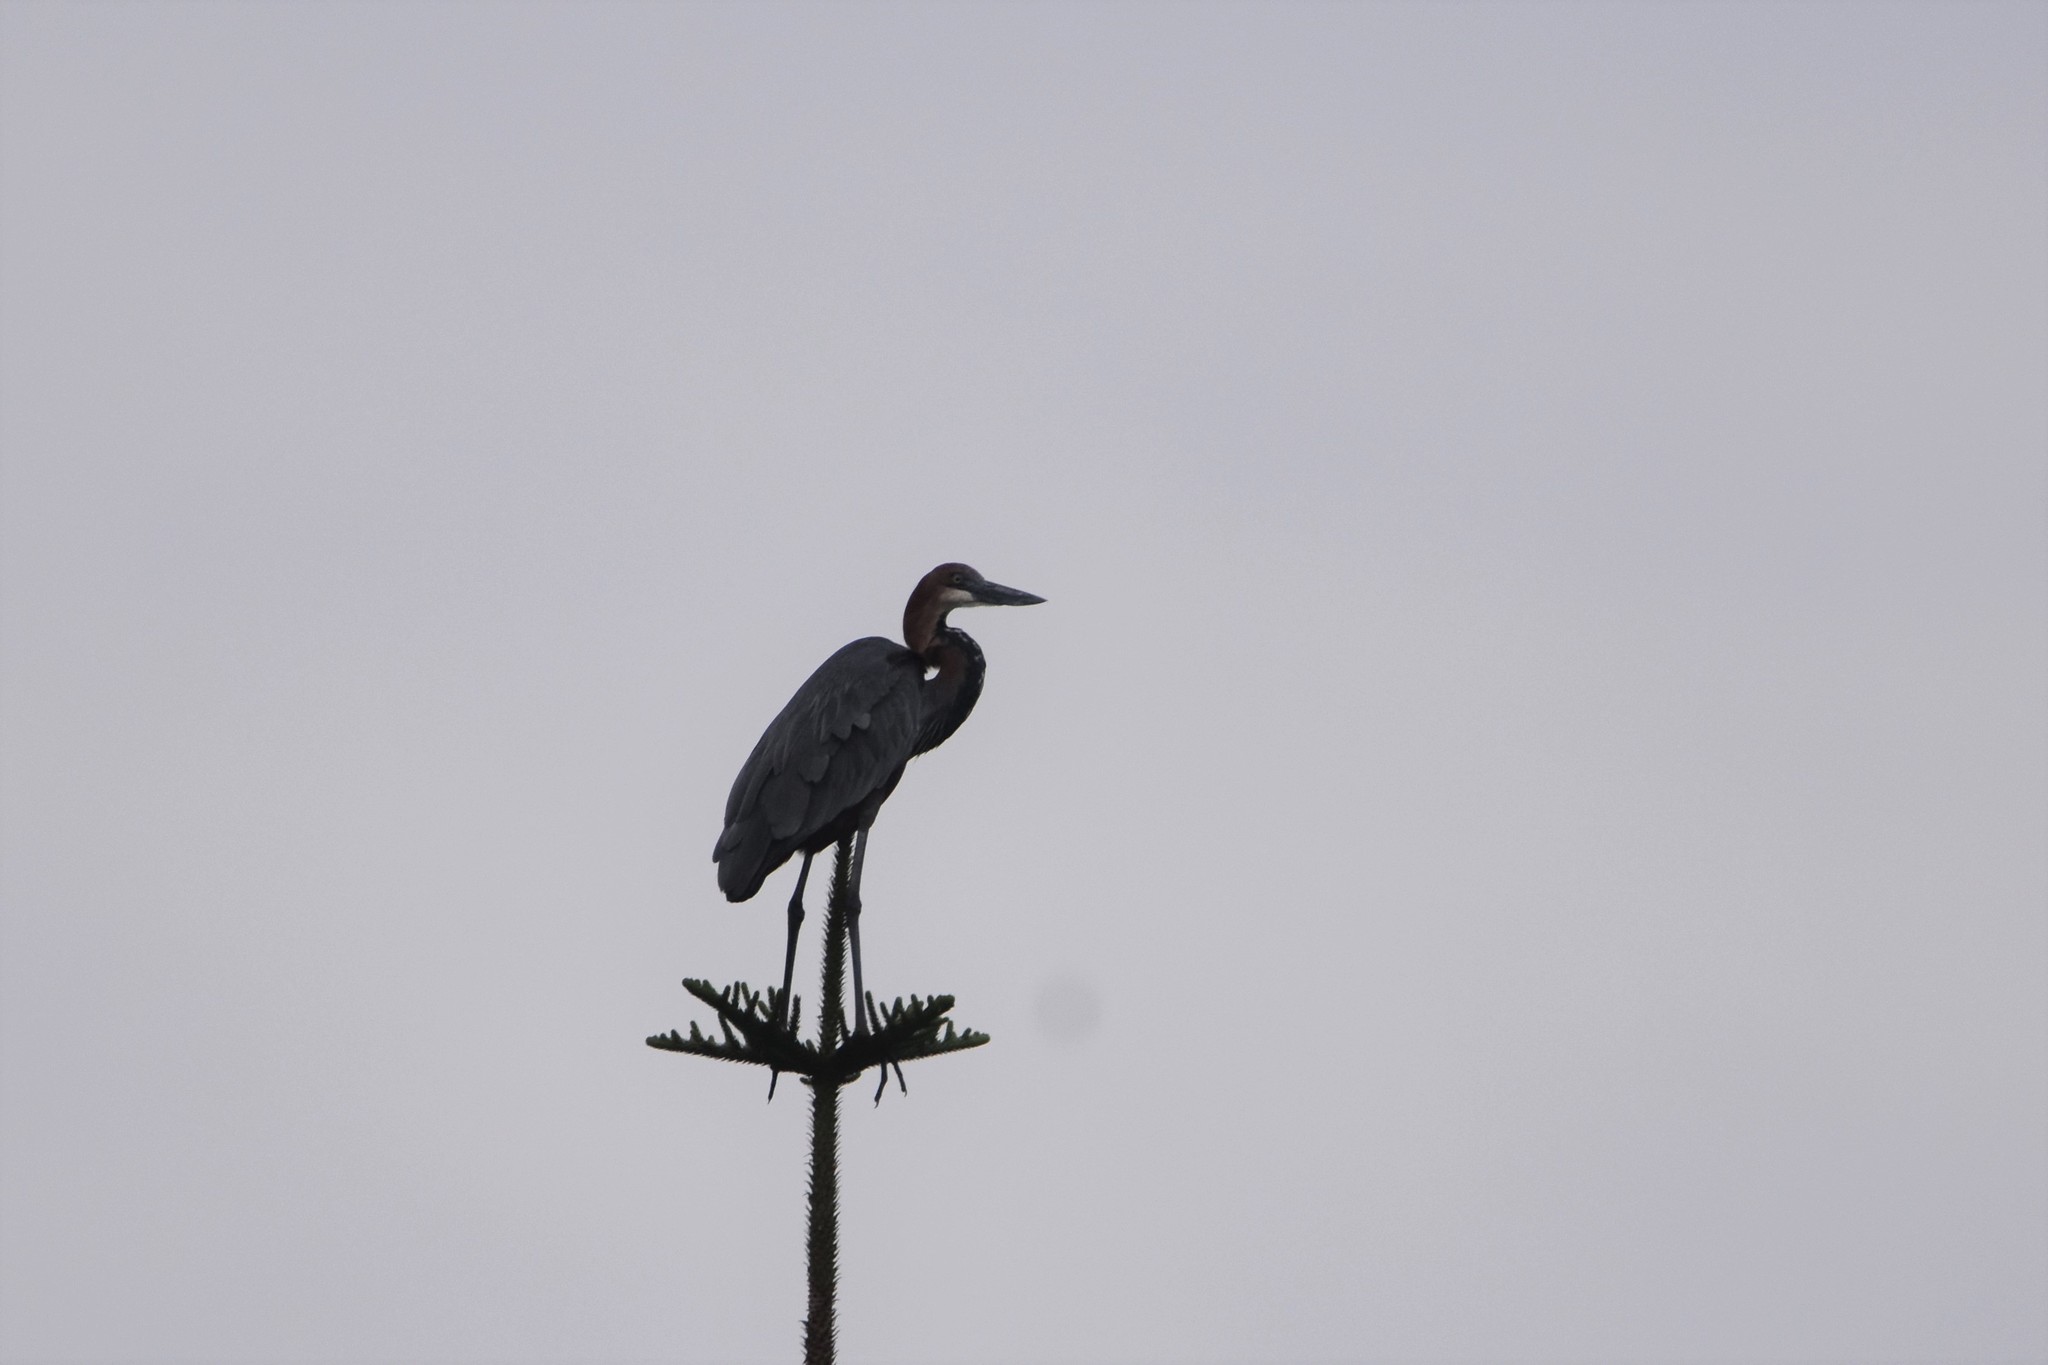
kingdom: Animalia
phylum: Chordata
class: Aves
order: Pelecaniformes
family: Ardeidae
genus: Ardea
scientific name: Ardea goliath
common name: Goliath heron
